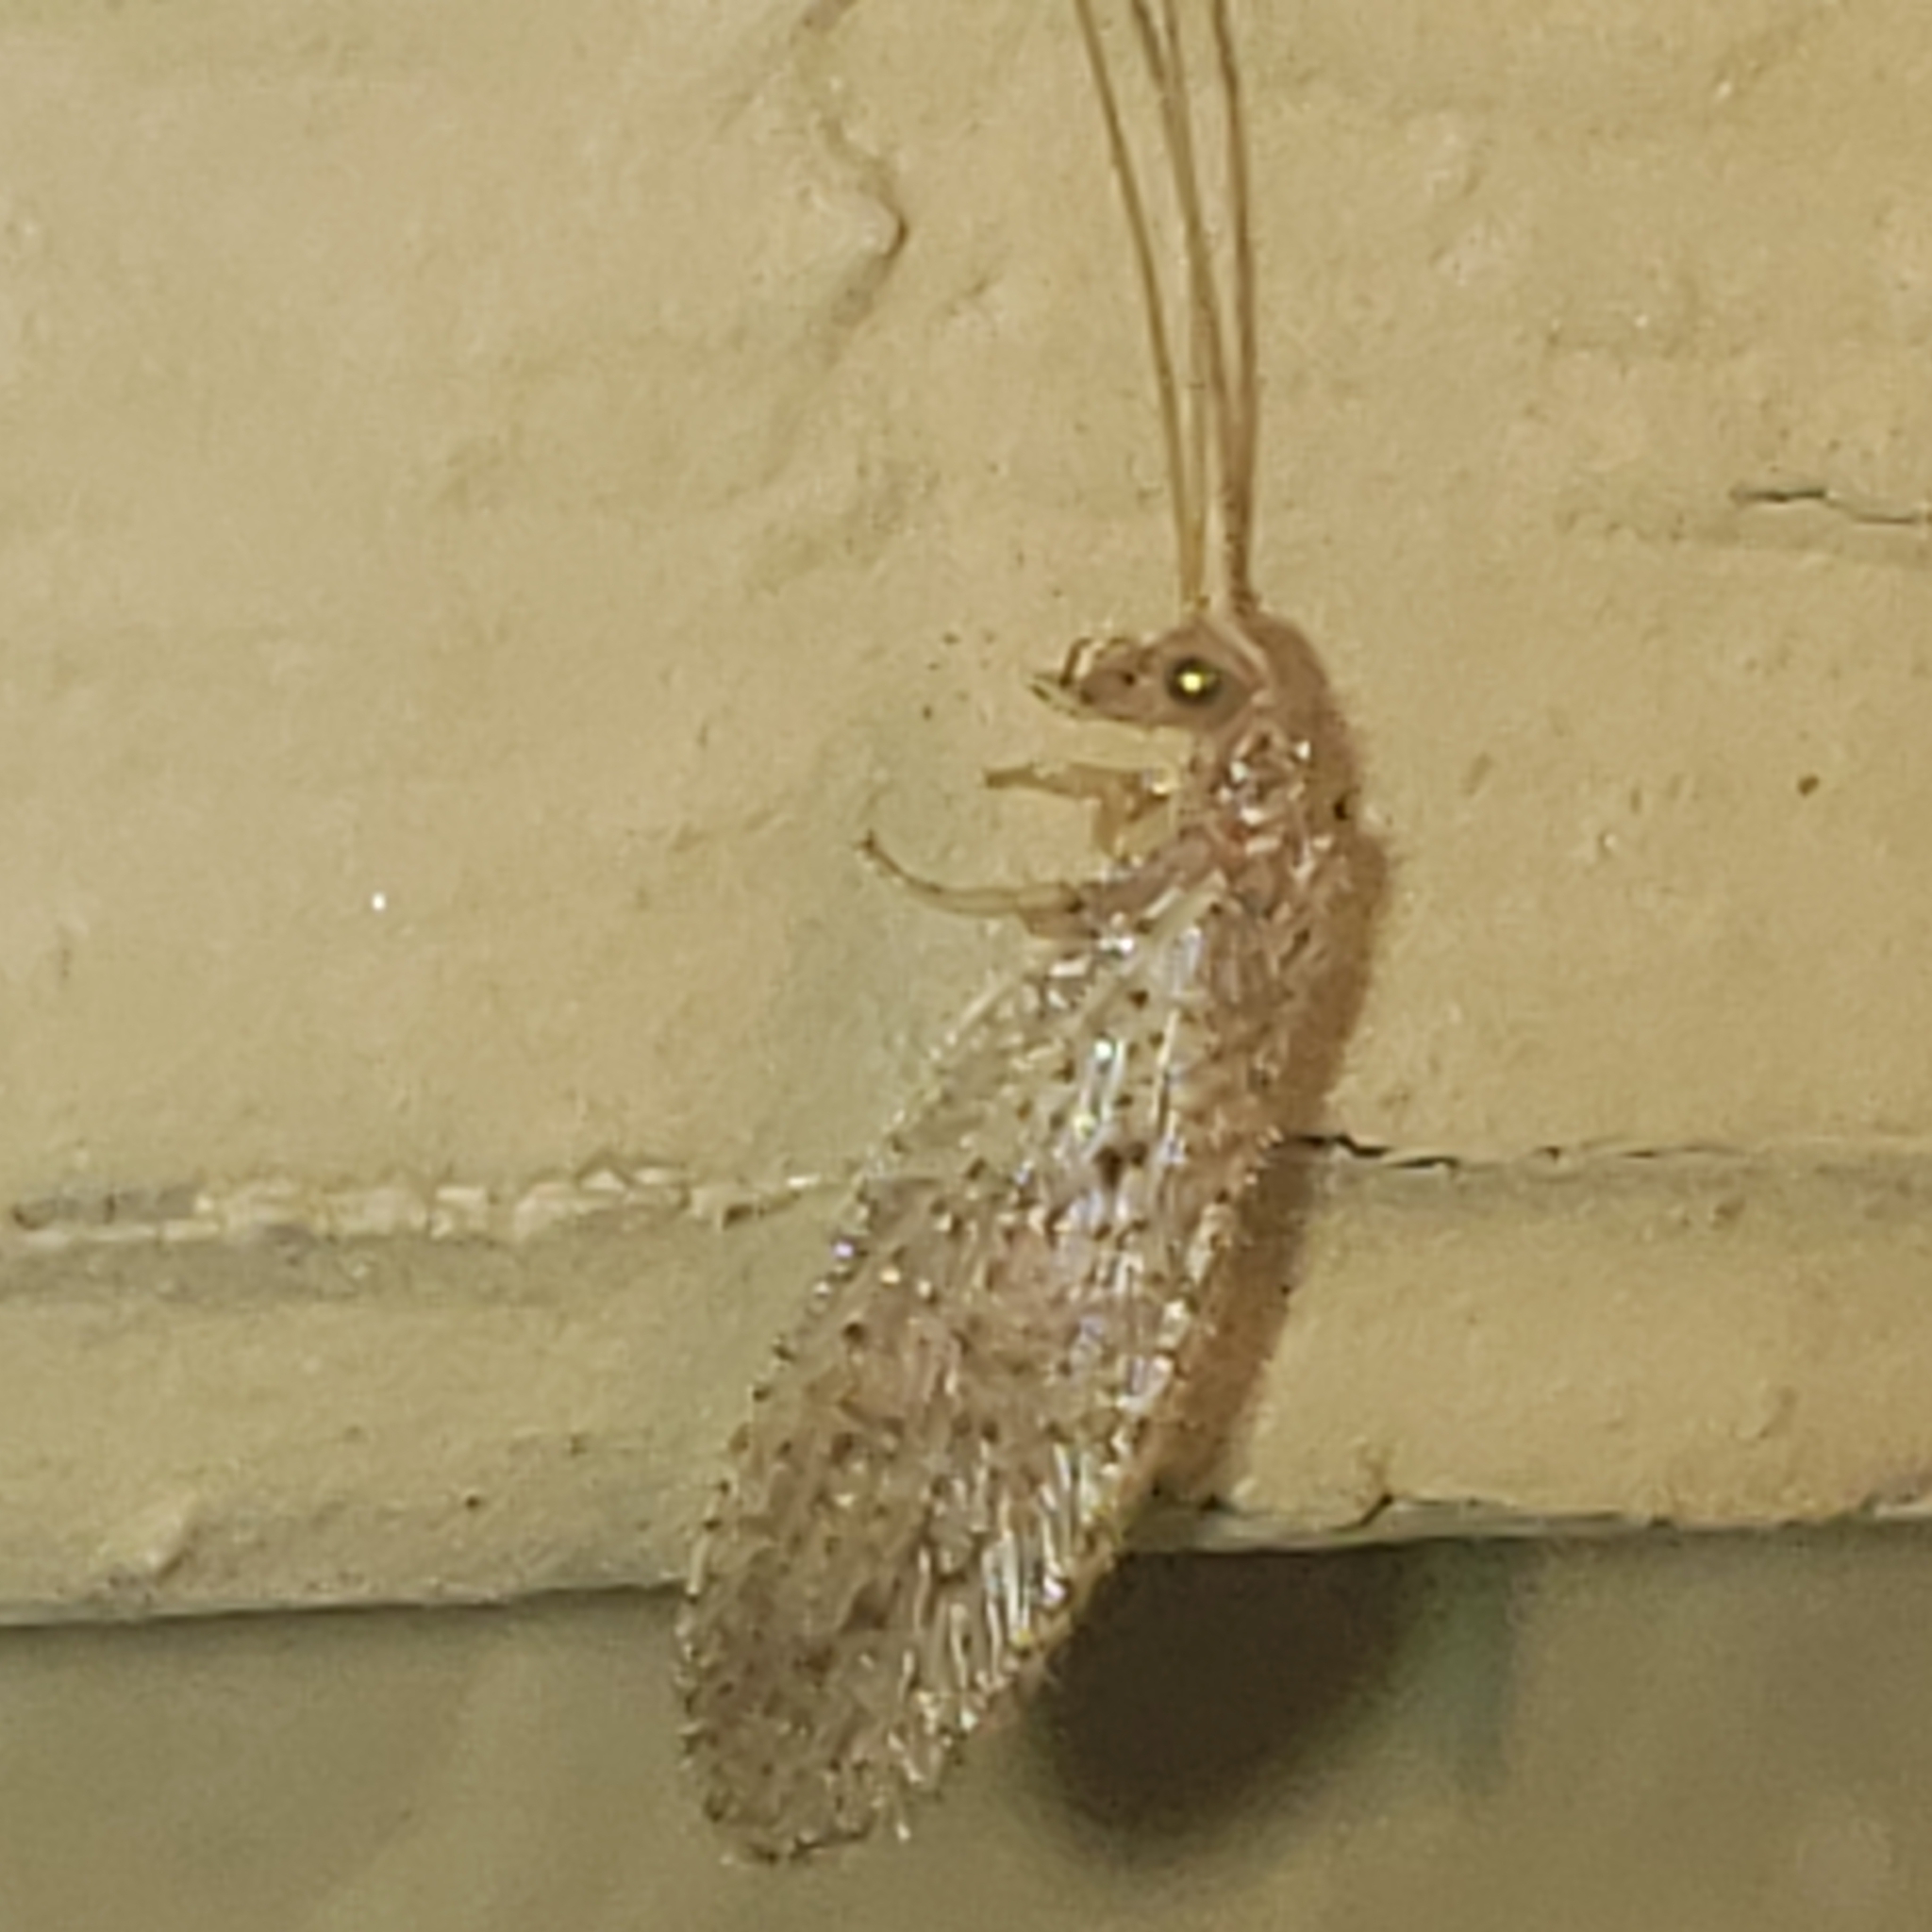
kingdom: Animalia
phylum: Arthropoda
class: Insecta
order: Neuroptera
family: Hemerobiidae
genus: Micromus
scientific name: Micromus subanticus
